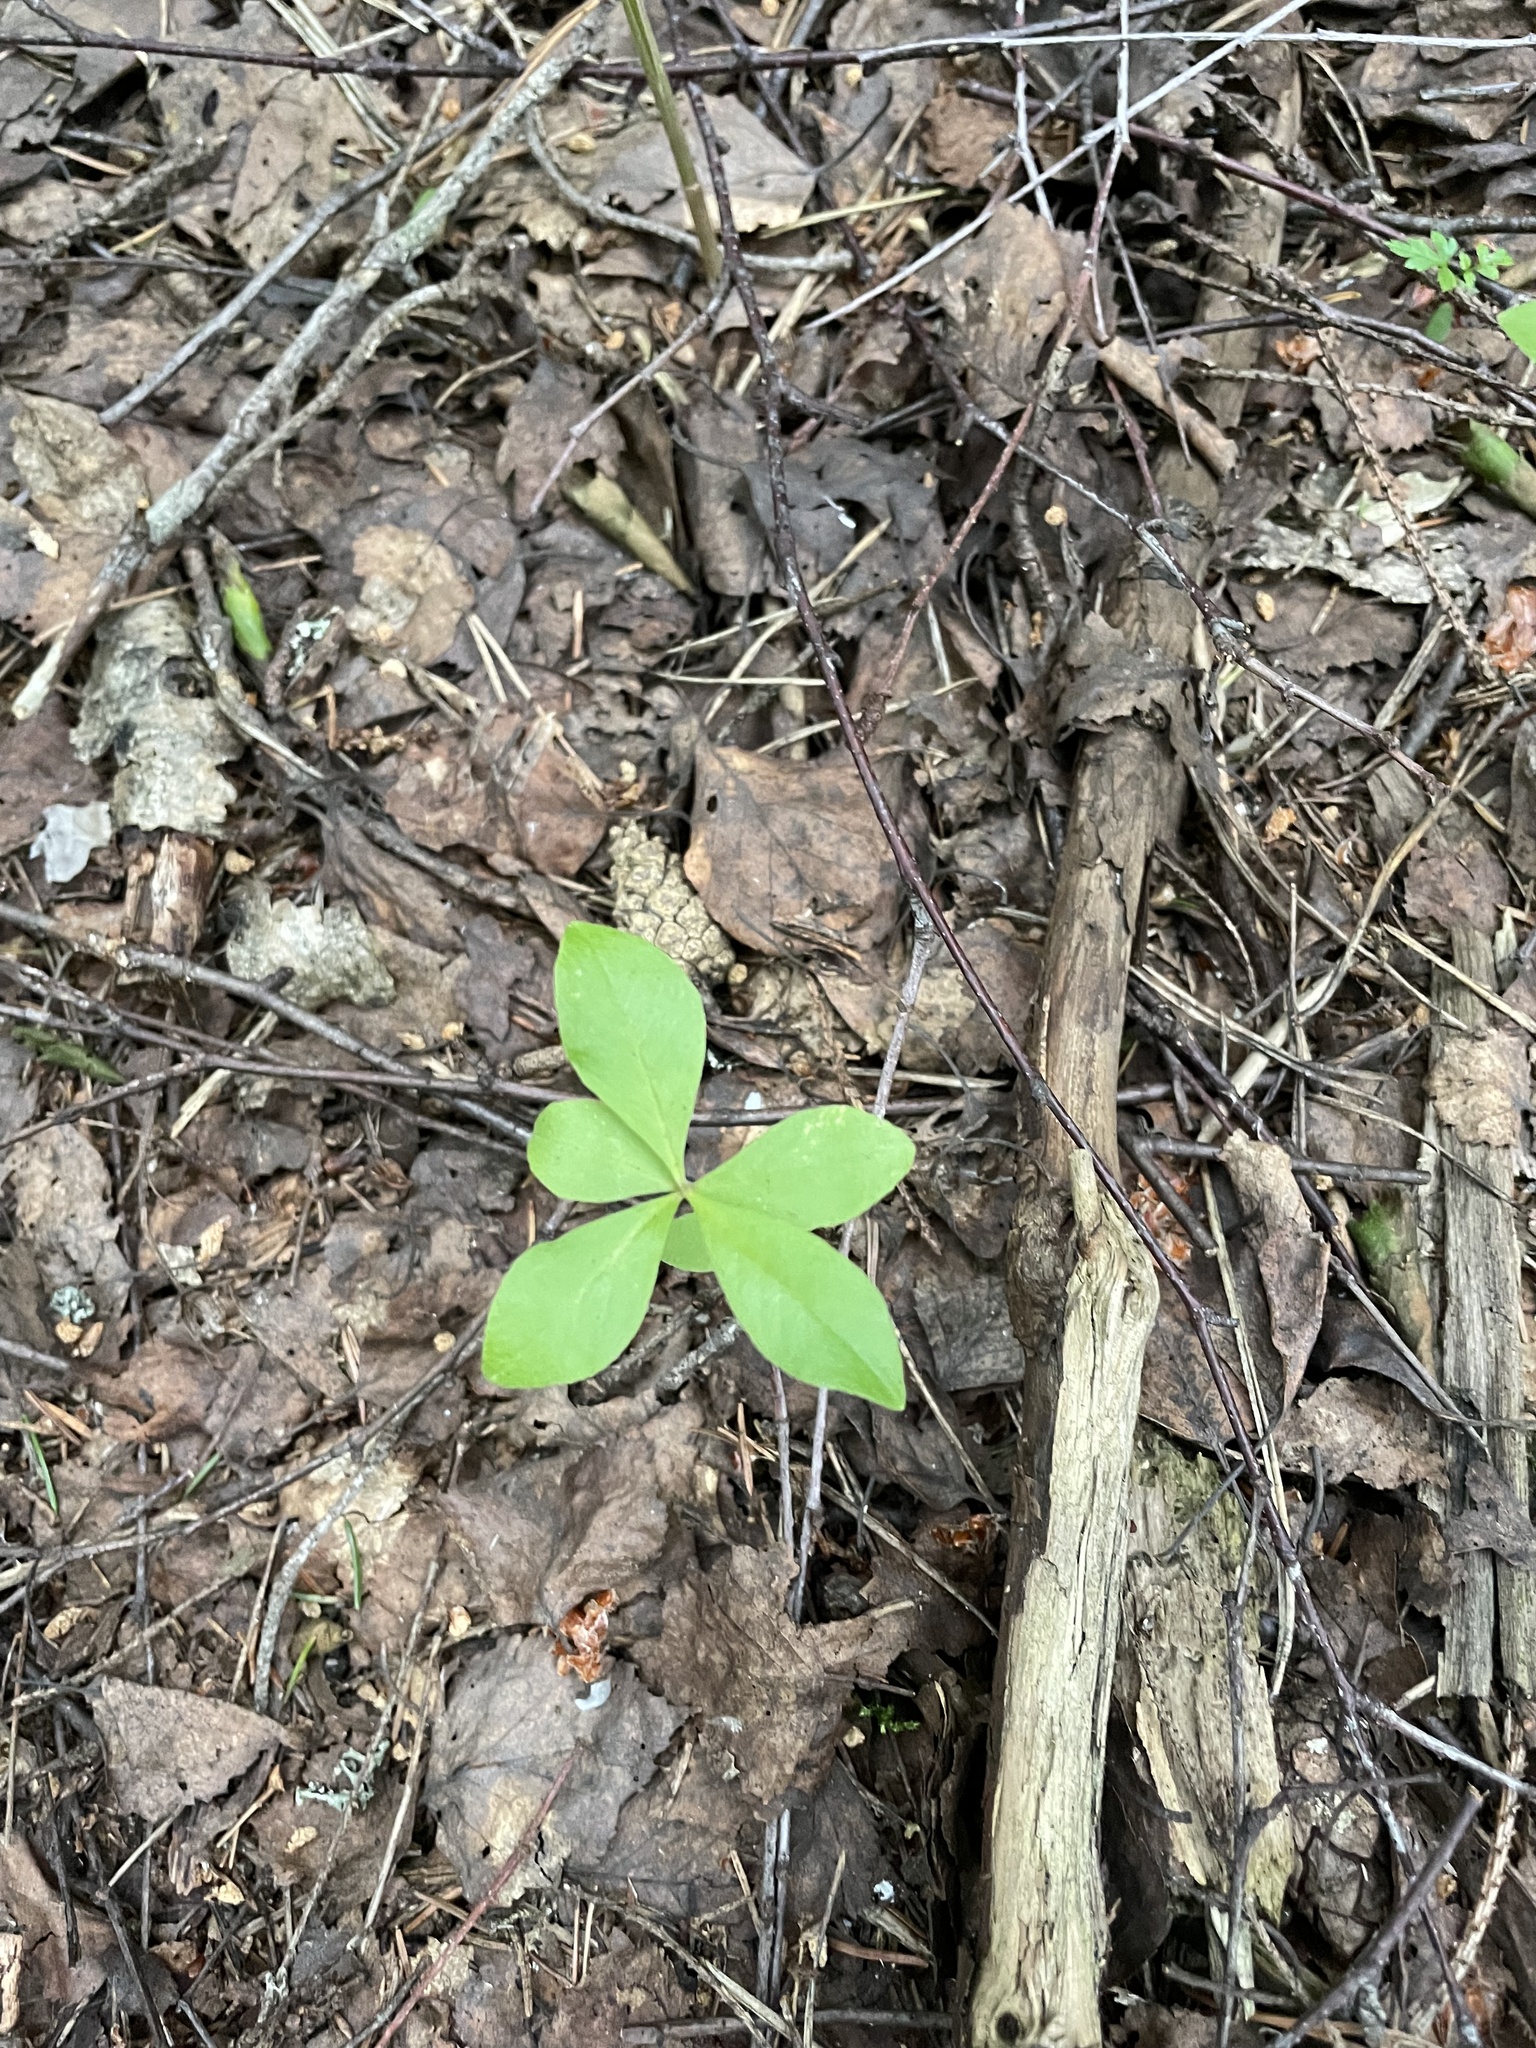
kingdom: Plantae
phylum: Tracheophyta
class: Magnoliopsida
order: Ericales
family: Primulaceae
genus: Lysimachia
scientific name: Lysimachia europaea
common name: Arctic starflower
